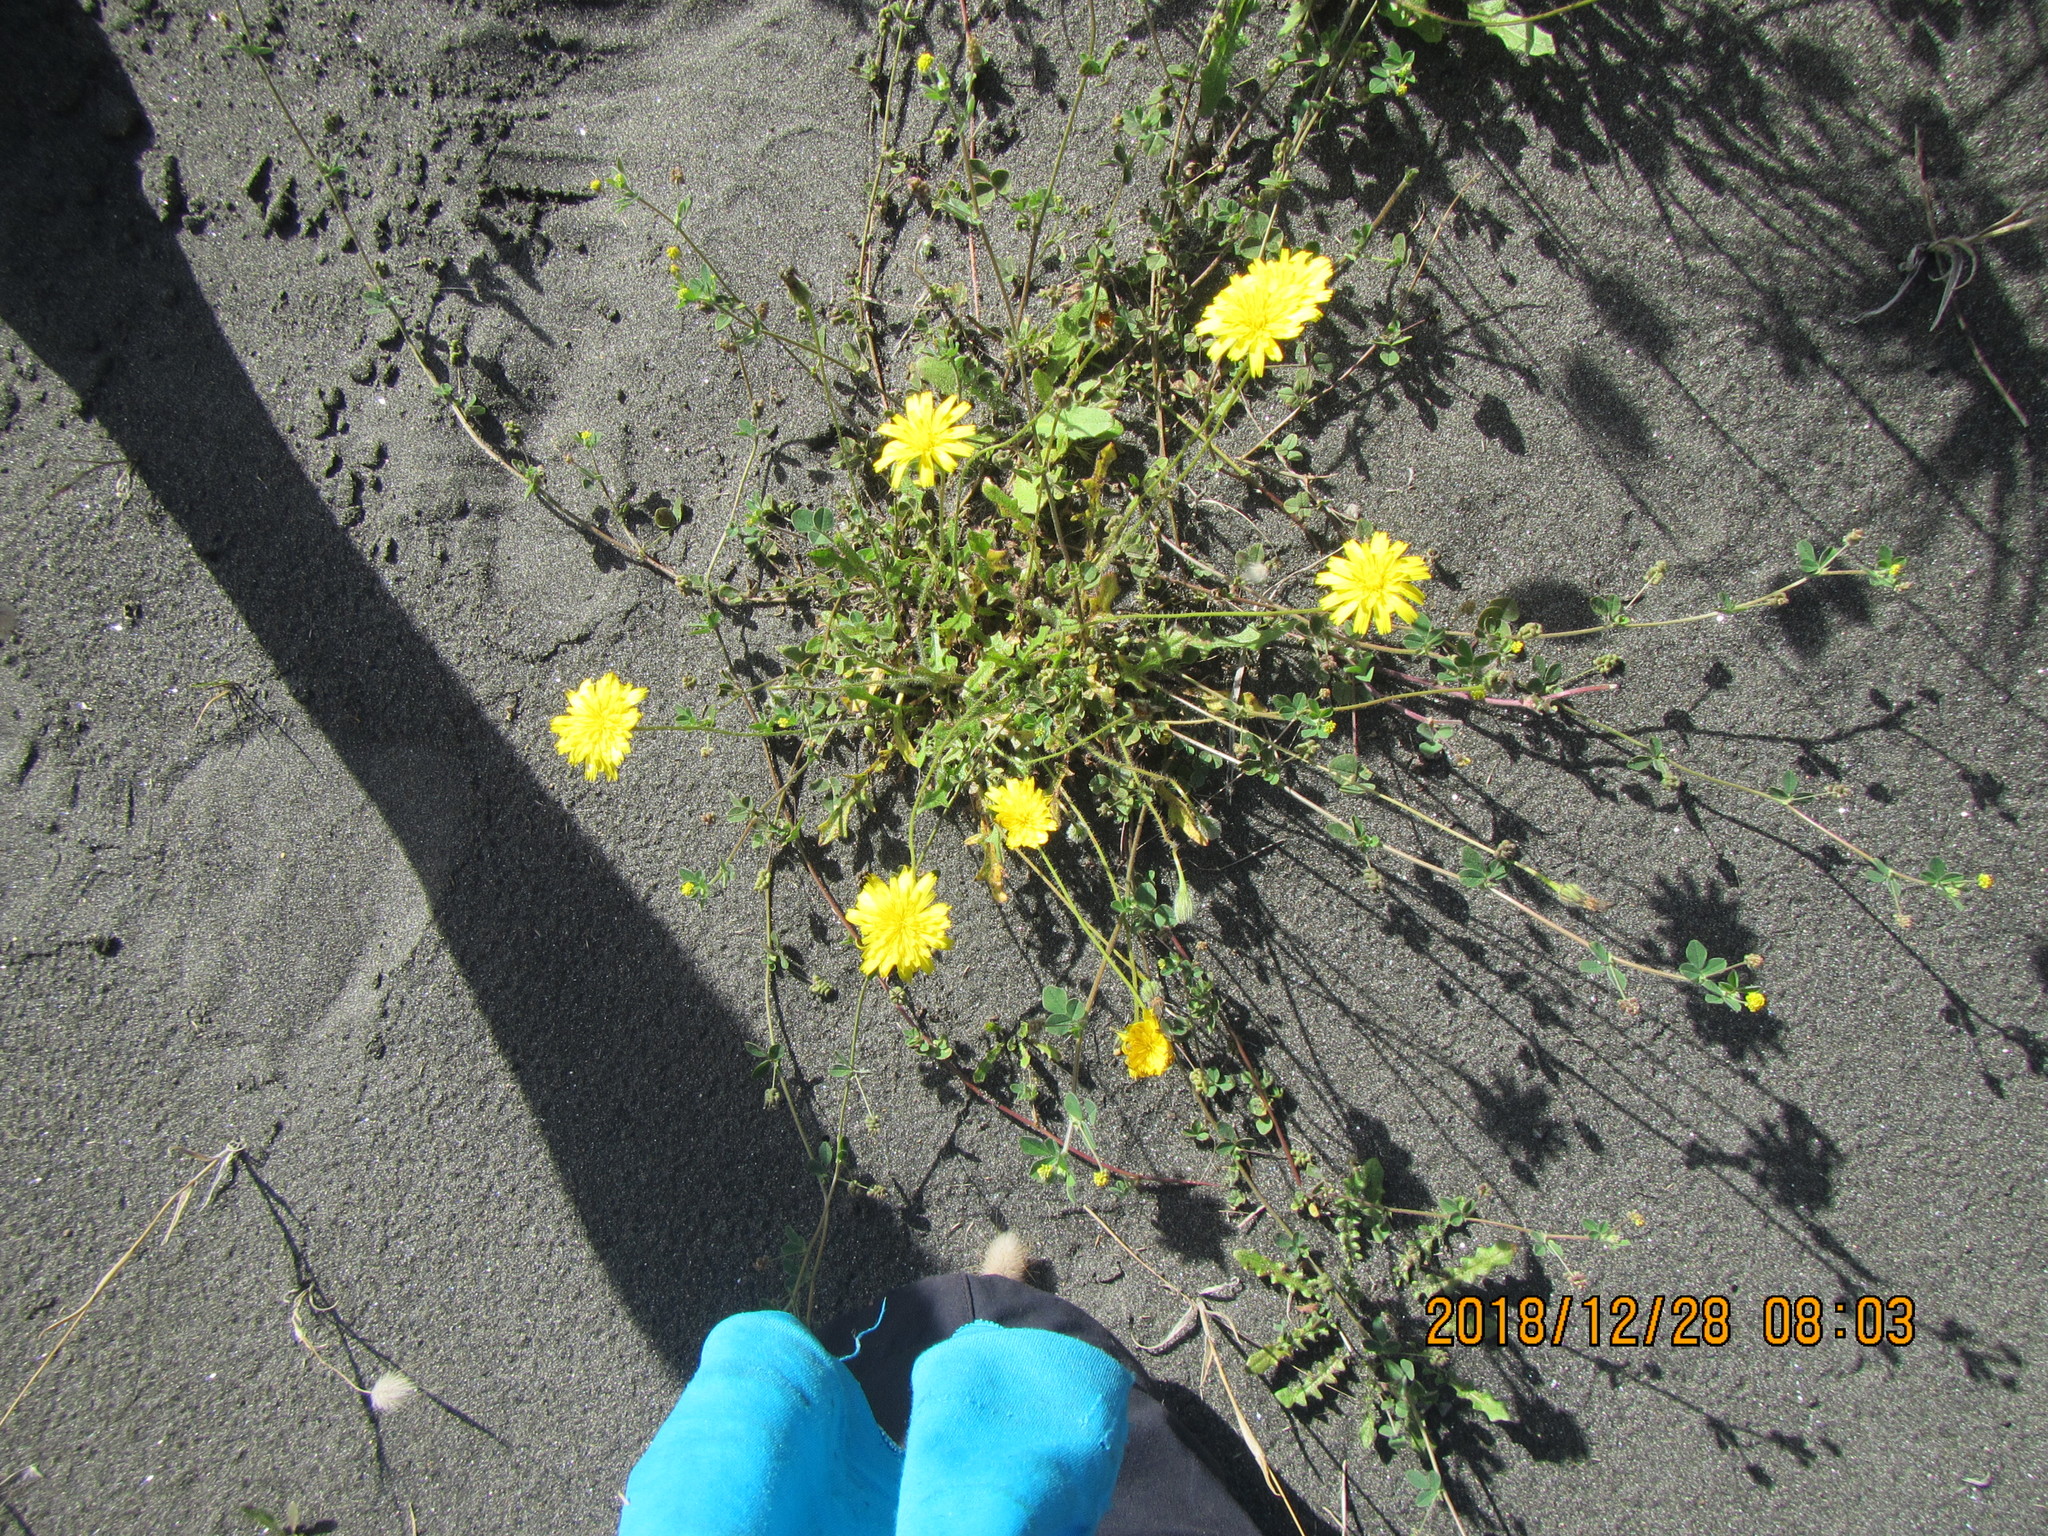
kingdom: Plantae
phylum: Tracheophyta
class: Magnoliopsida
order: Asterales
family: Asteraceae
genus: Thrincia
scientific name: Thrincia saxatilis
